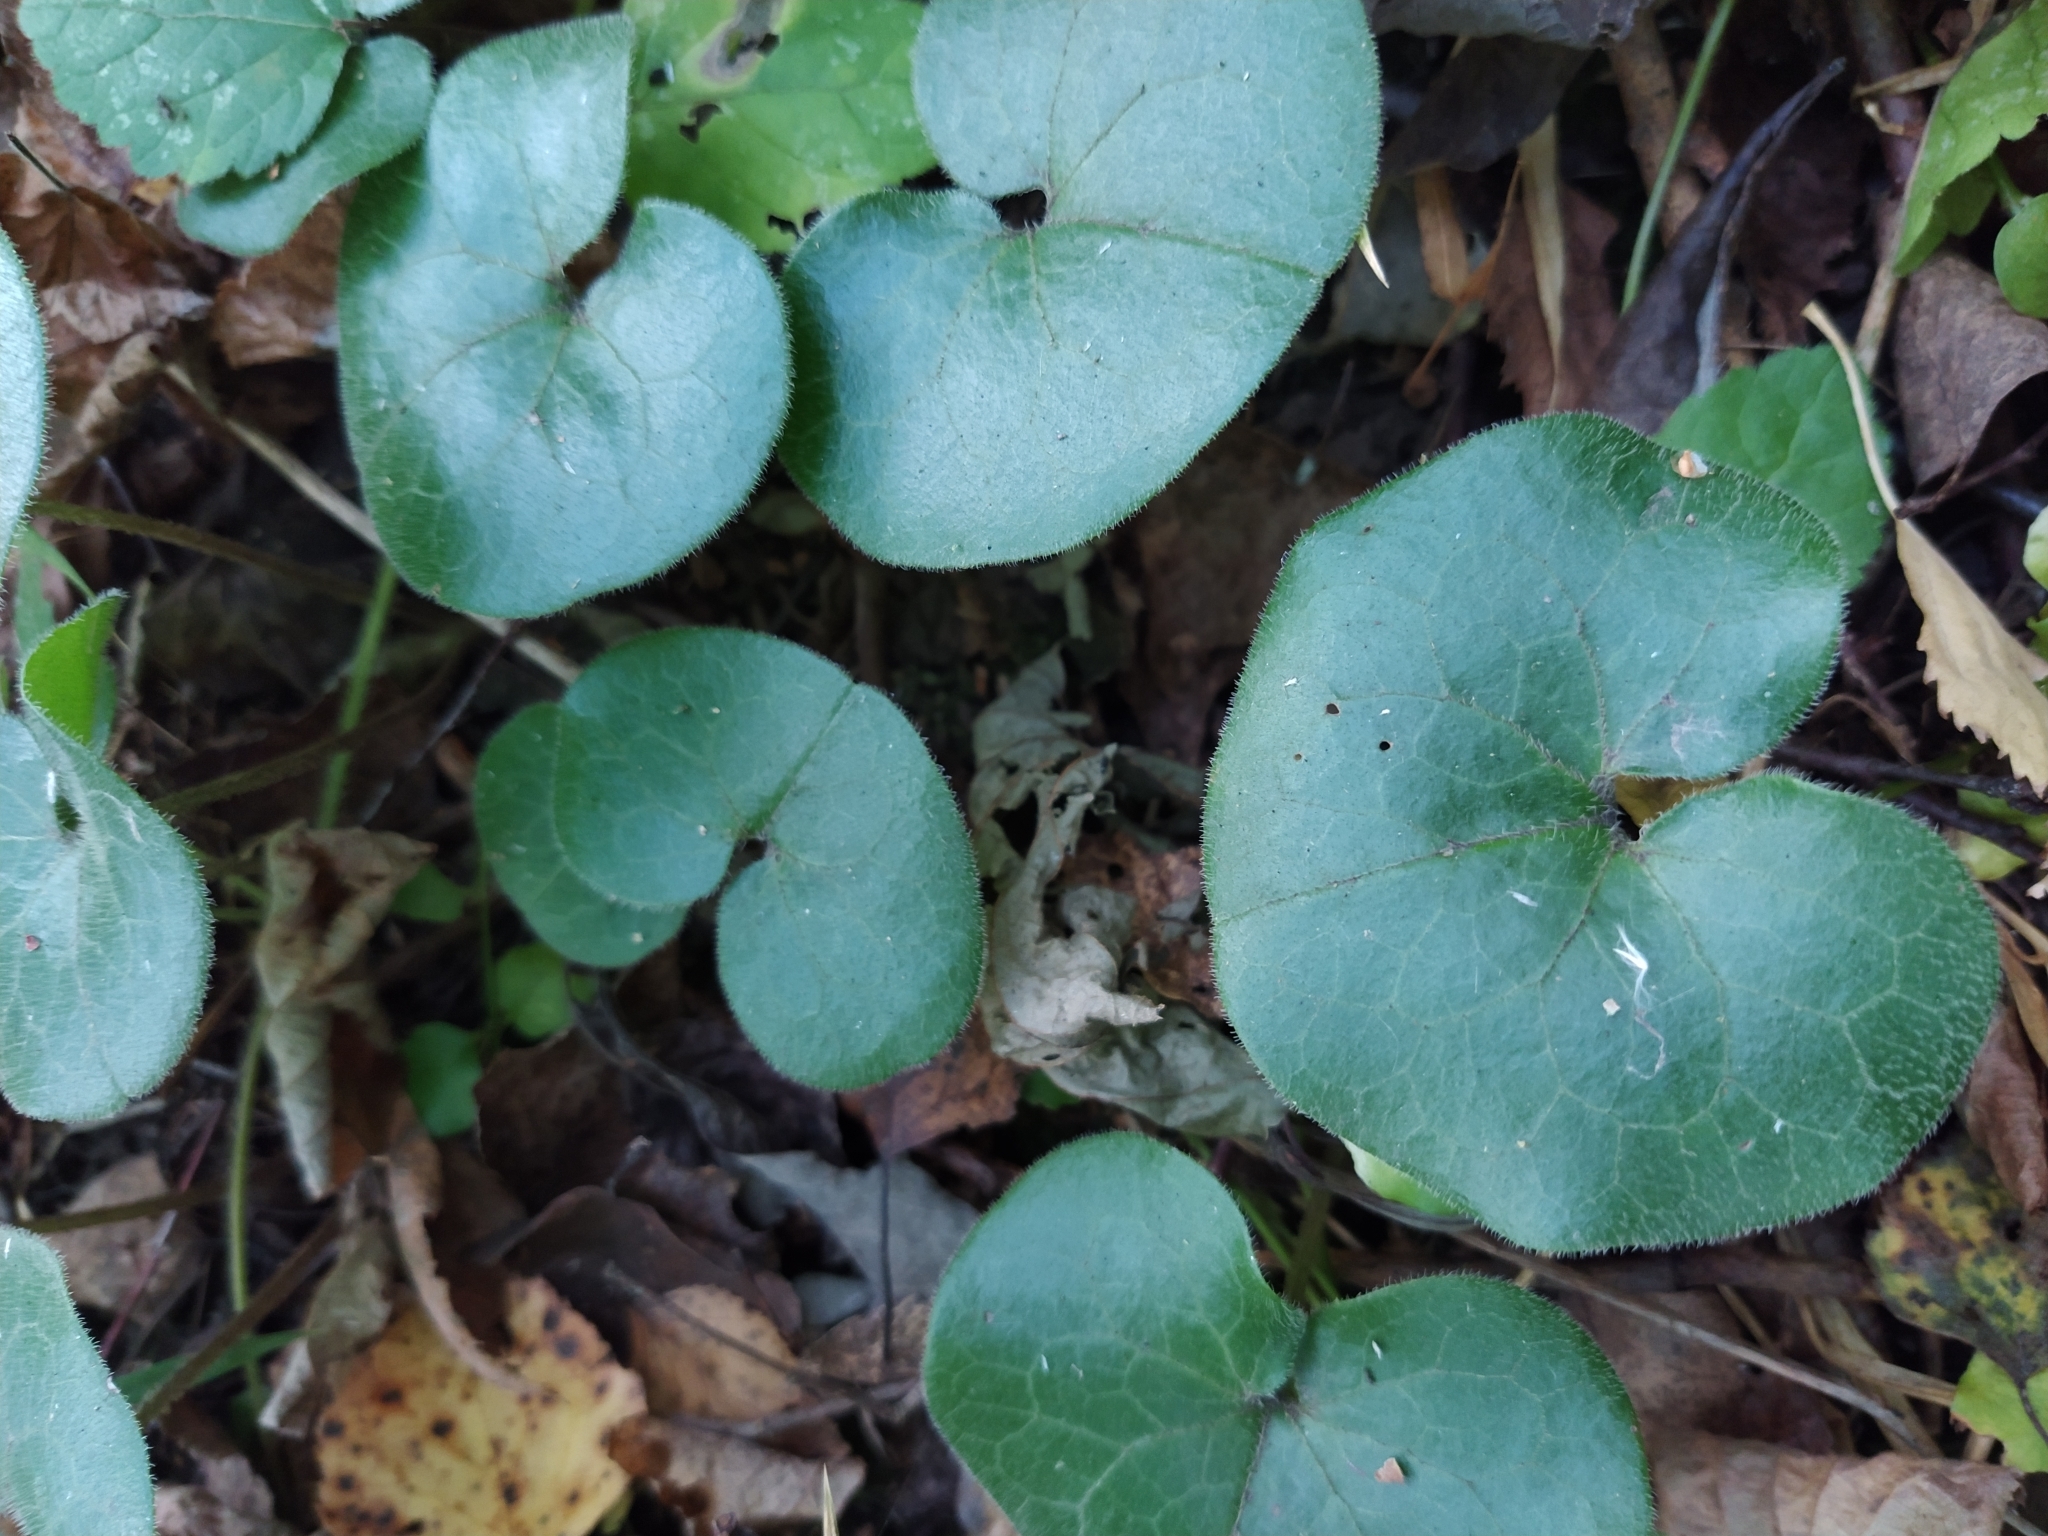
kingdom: Plantae
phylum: Tracheophyta
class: Magnoliopsida
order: Piperales
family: Aristolochiaceae
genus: Asarum
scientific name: Asarum europaeum
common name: Asarabacca
